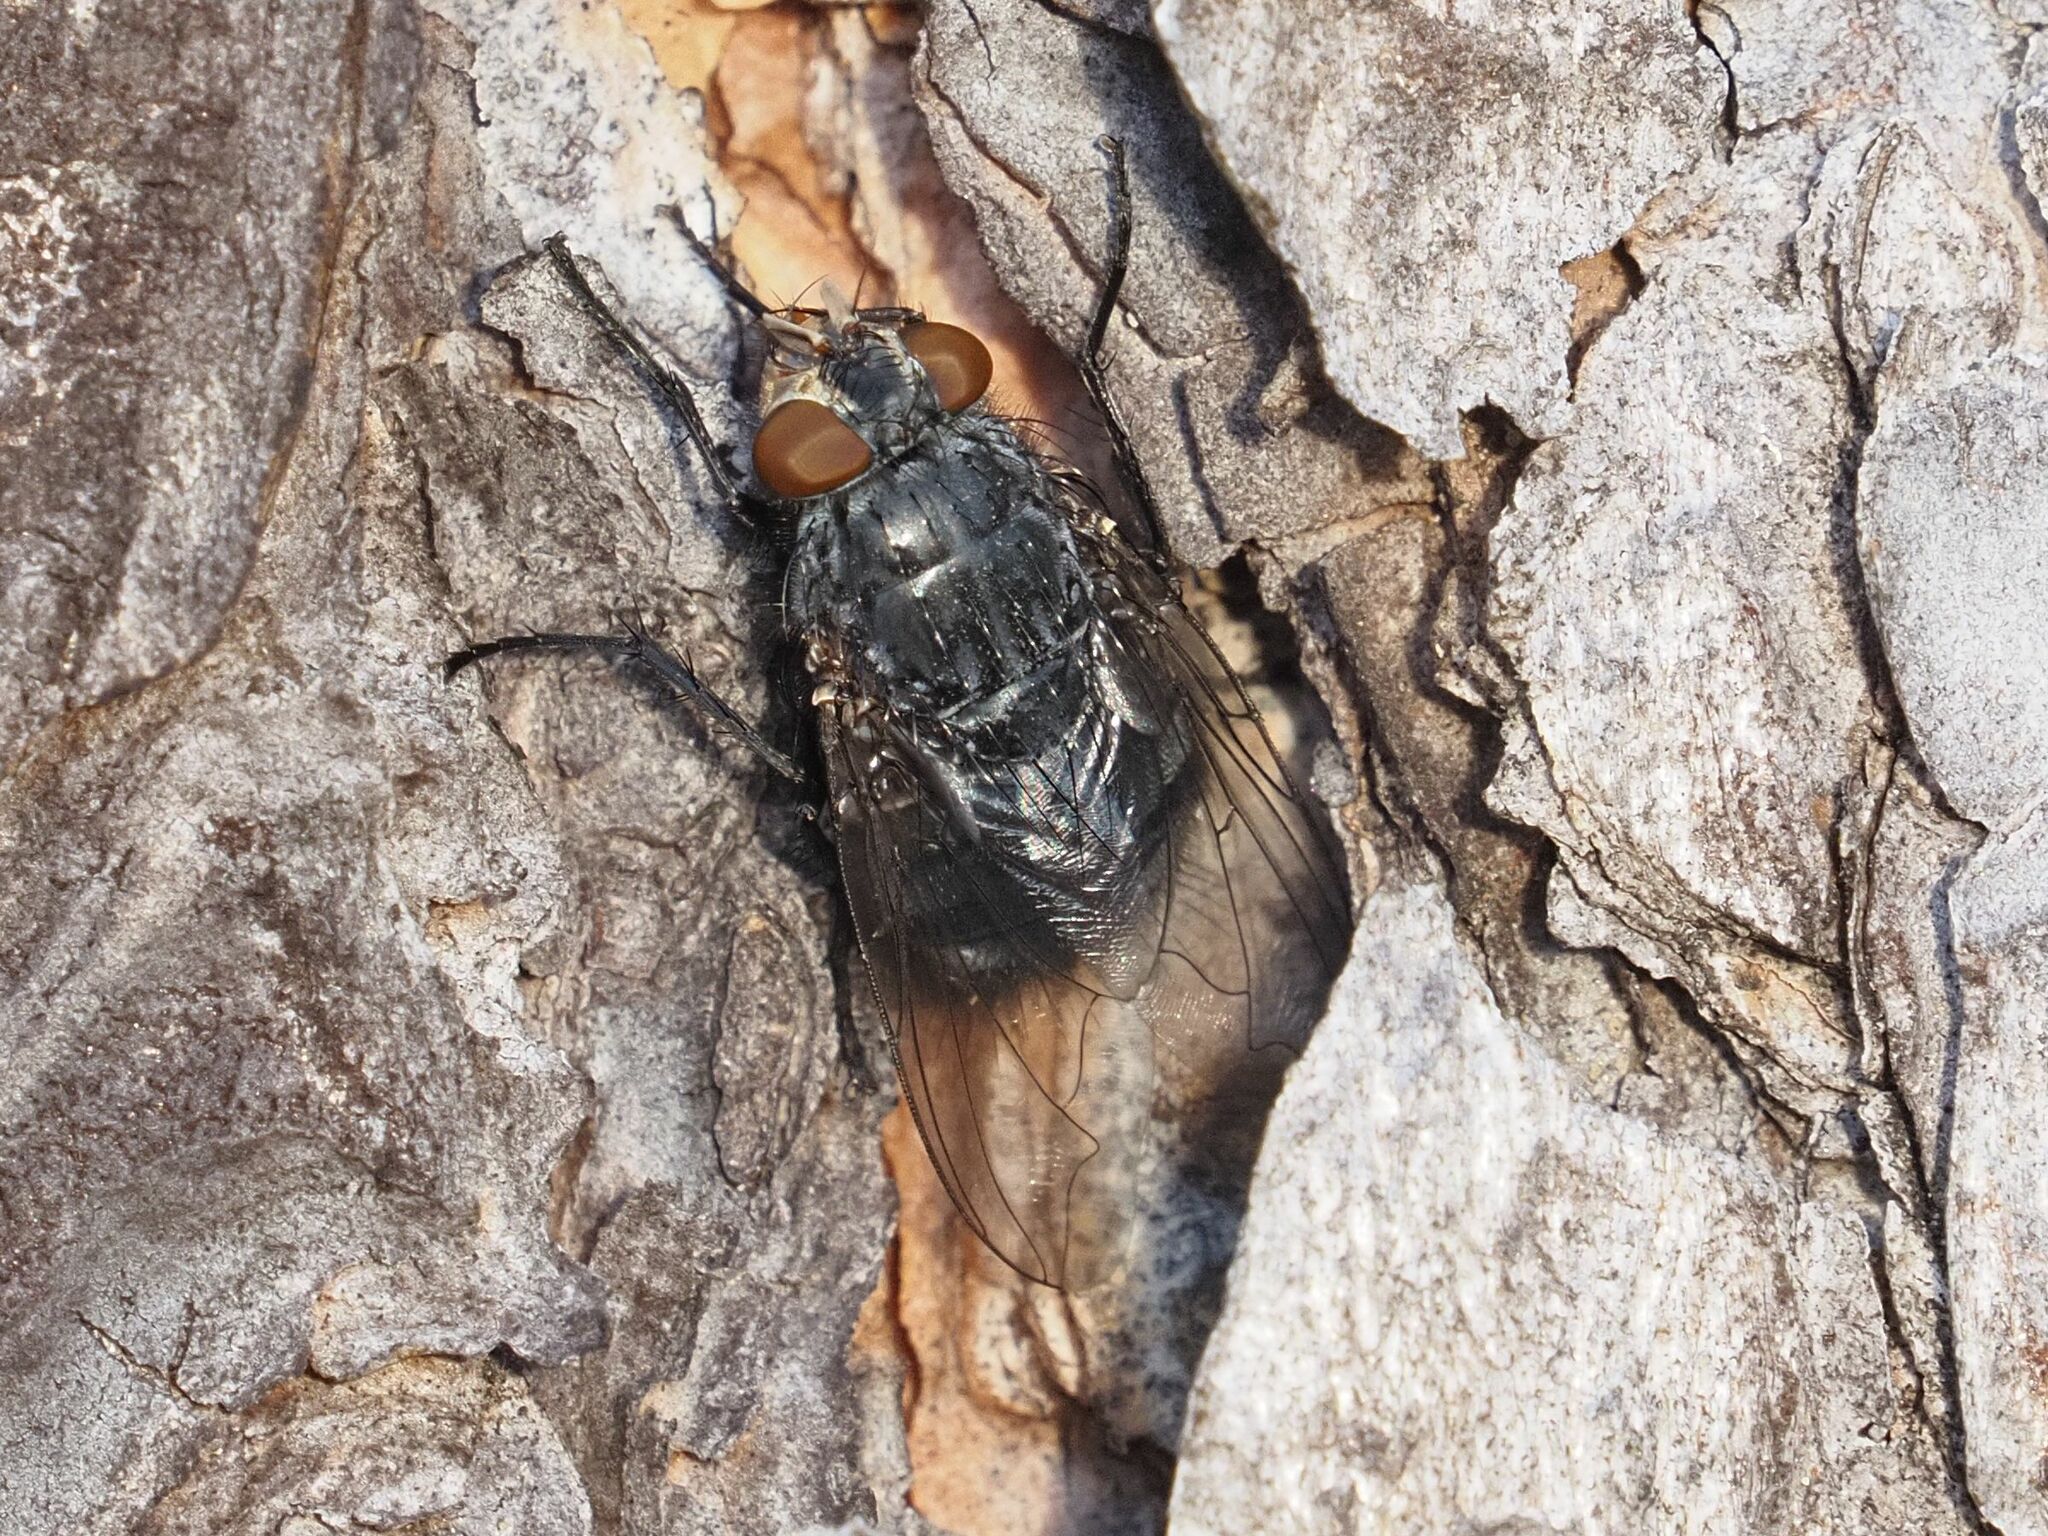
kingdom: Animalia
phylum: Arthropoda
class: Insecta
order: Diptera
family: Calliphoridae
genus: Calliphora
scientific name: Calliphora vicina
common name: Common blow flie
